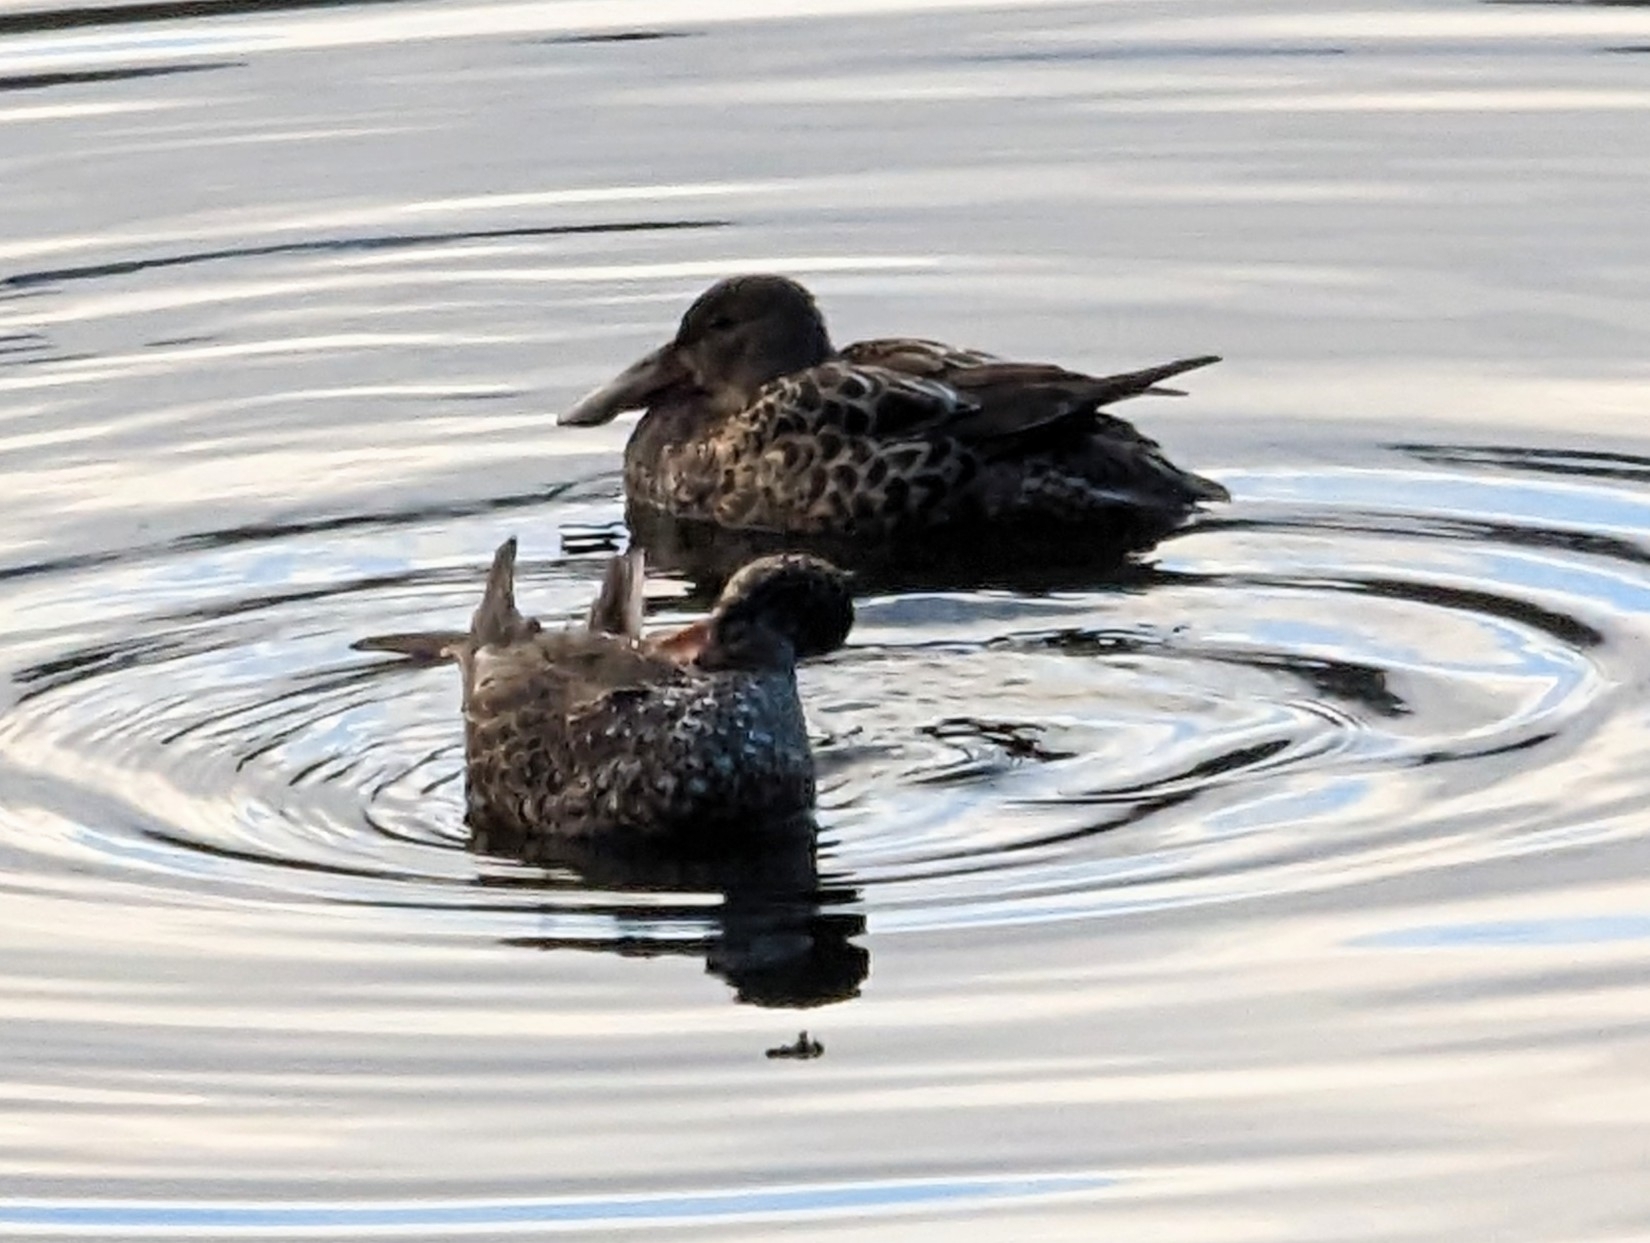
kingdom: Animalia
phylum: Chordata
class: Aves
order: Anseriformes
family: Anatidae
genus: Spatula
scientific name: Spatula clypeata
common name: Northern shoveler
